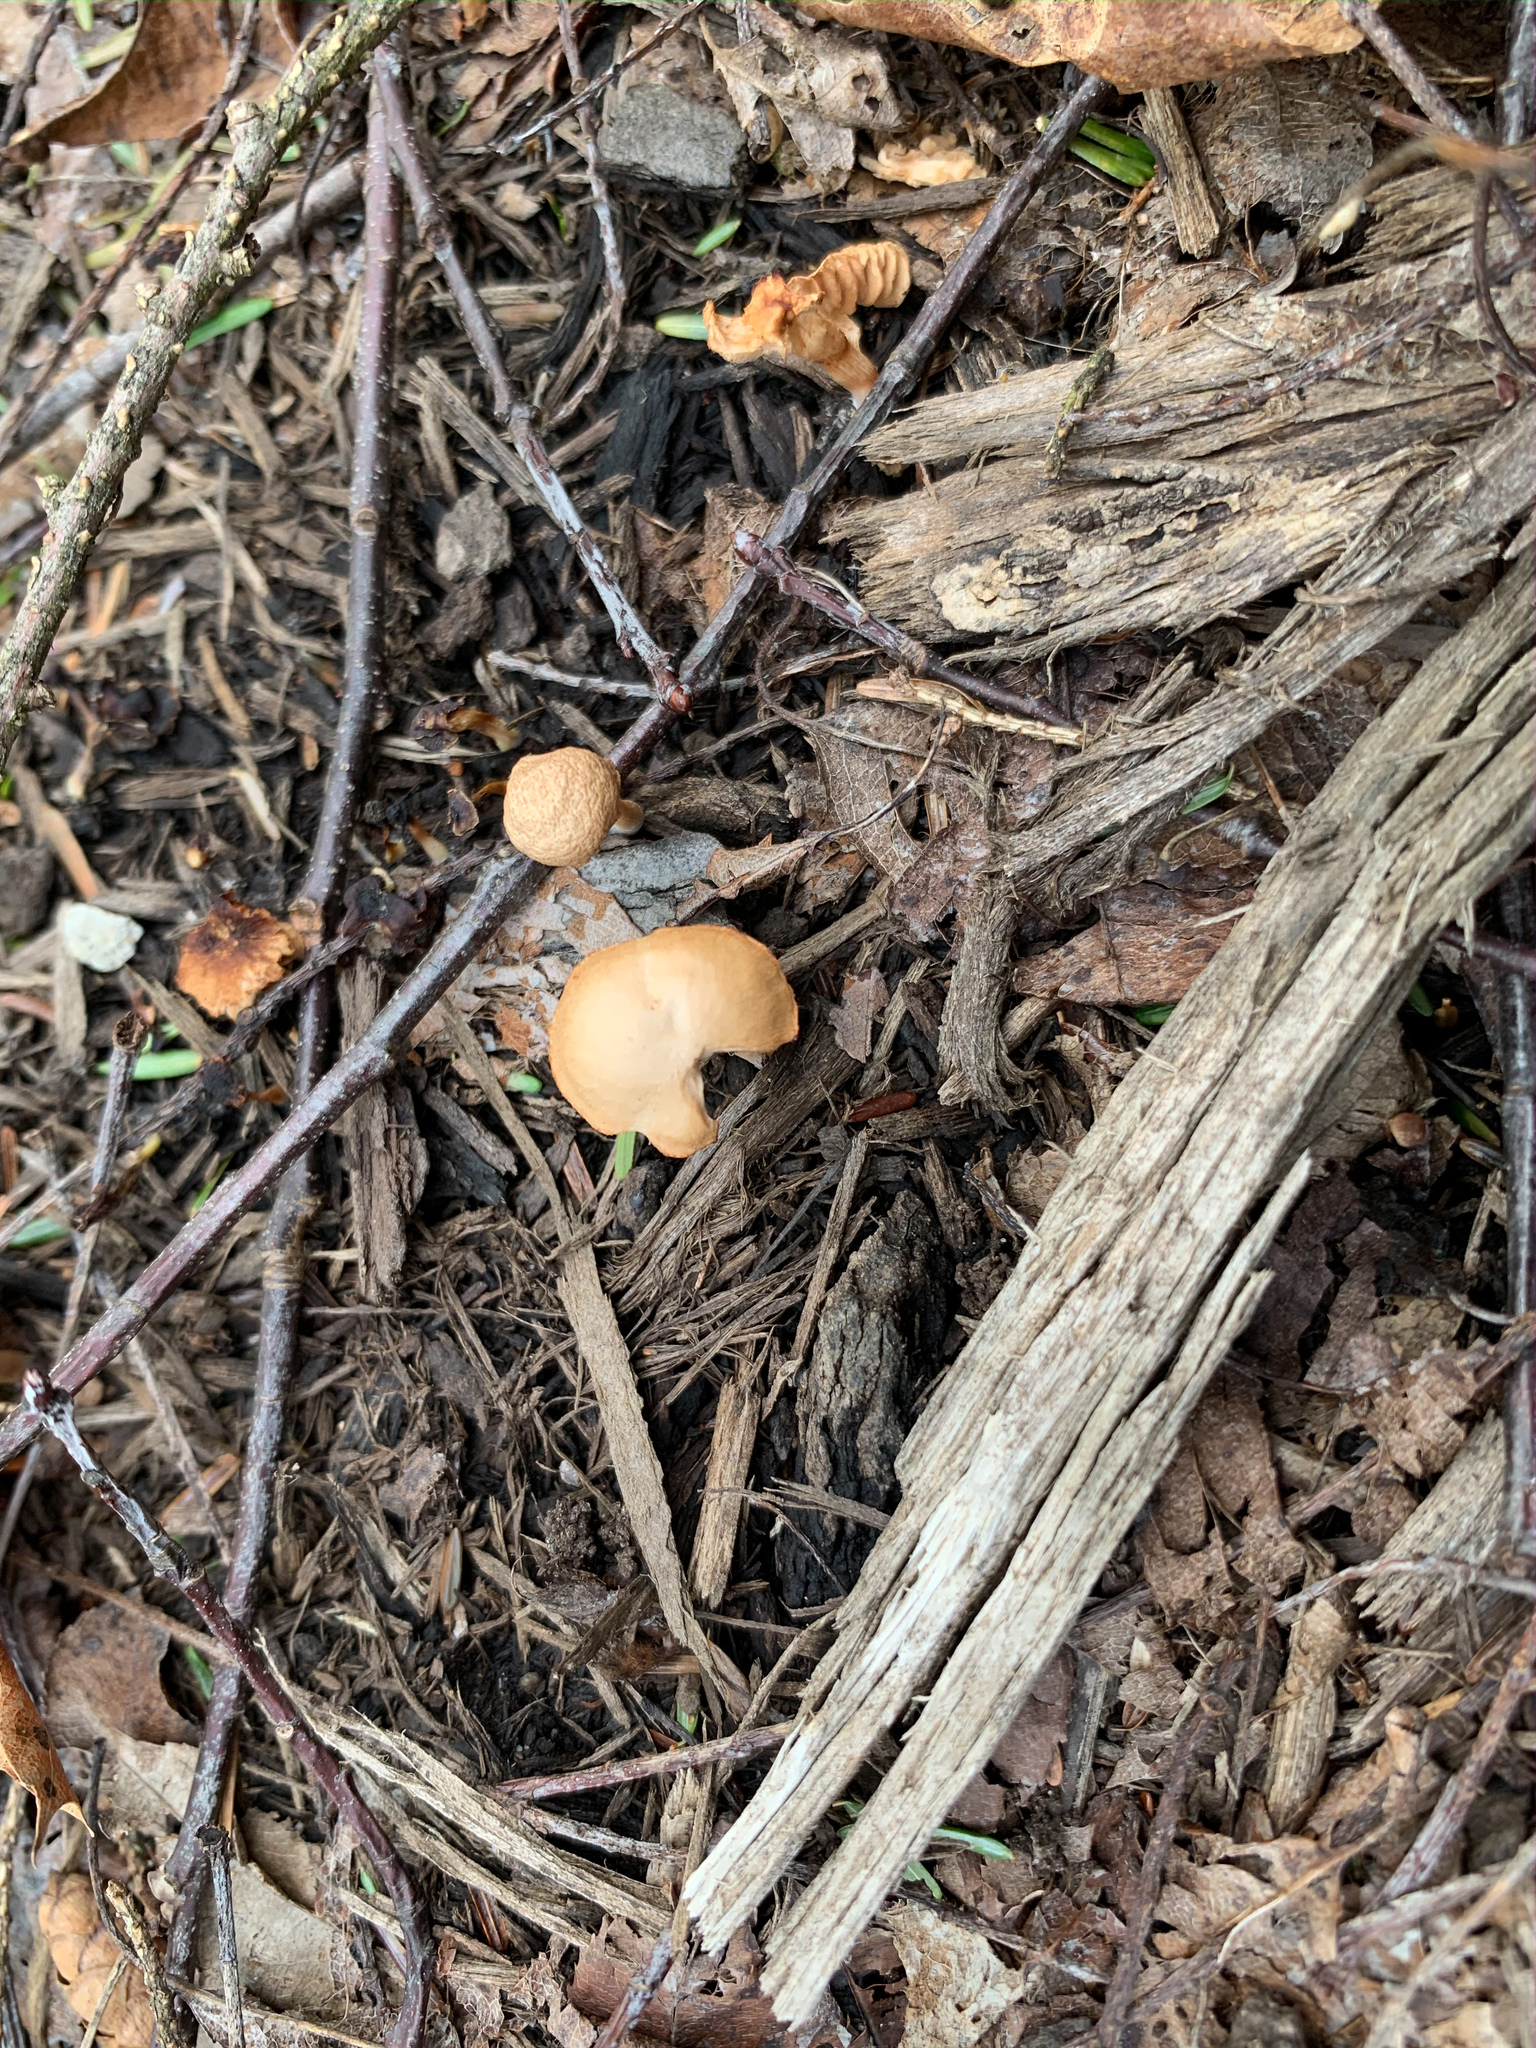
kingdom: Fungi
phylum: Basidiomycota
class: Agaricomycetes
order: Agaricales
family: Tubariaceae
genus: Tubaria
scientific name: Tubaria furfuracea
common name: Scurfy twiglet
